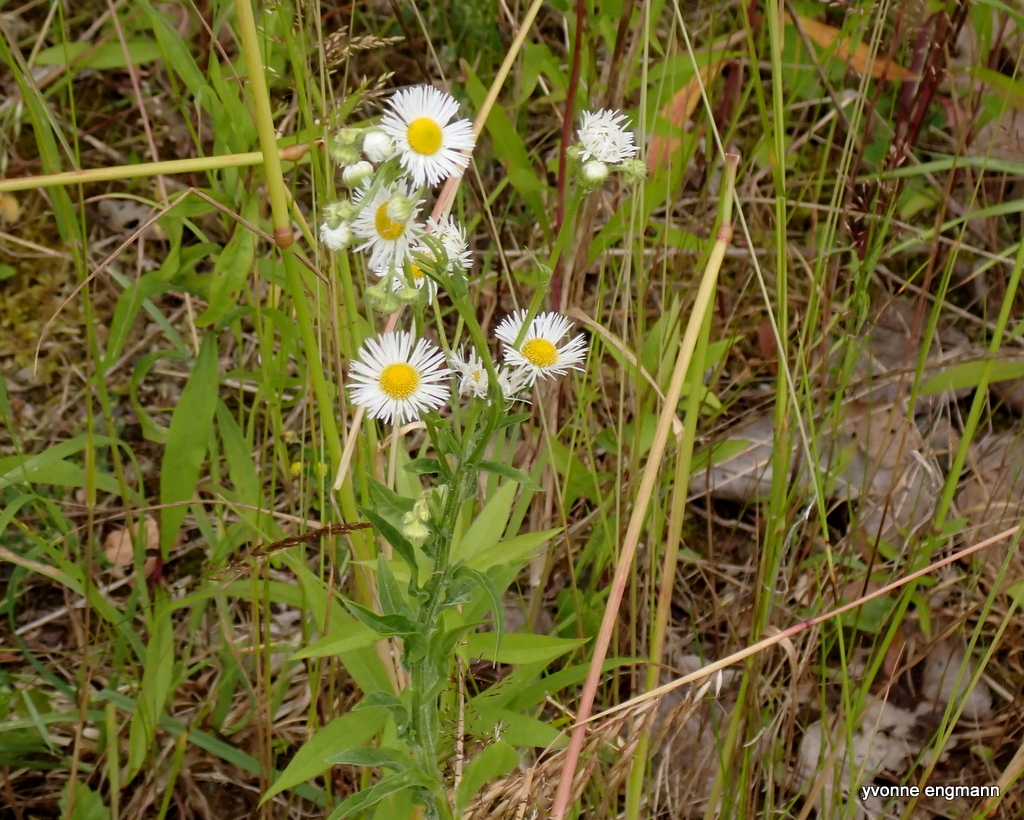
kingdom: Plantae
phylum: Tracheophyta
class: Magnoliopsida
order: Asterales
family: Asteraceae
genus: Erigeron
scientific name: Erigeron annuus
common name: Tall fleabane
